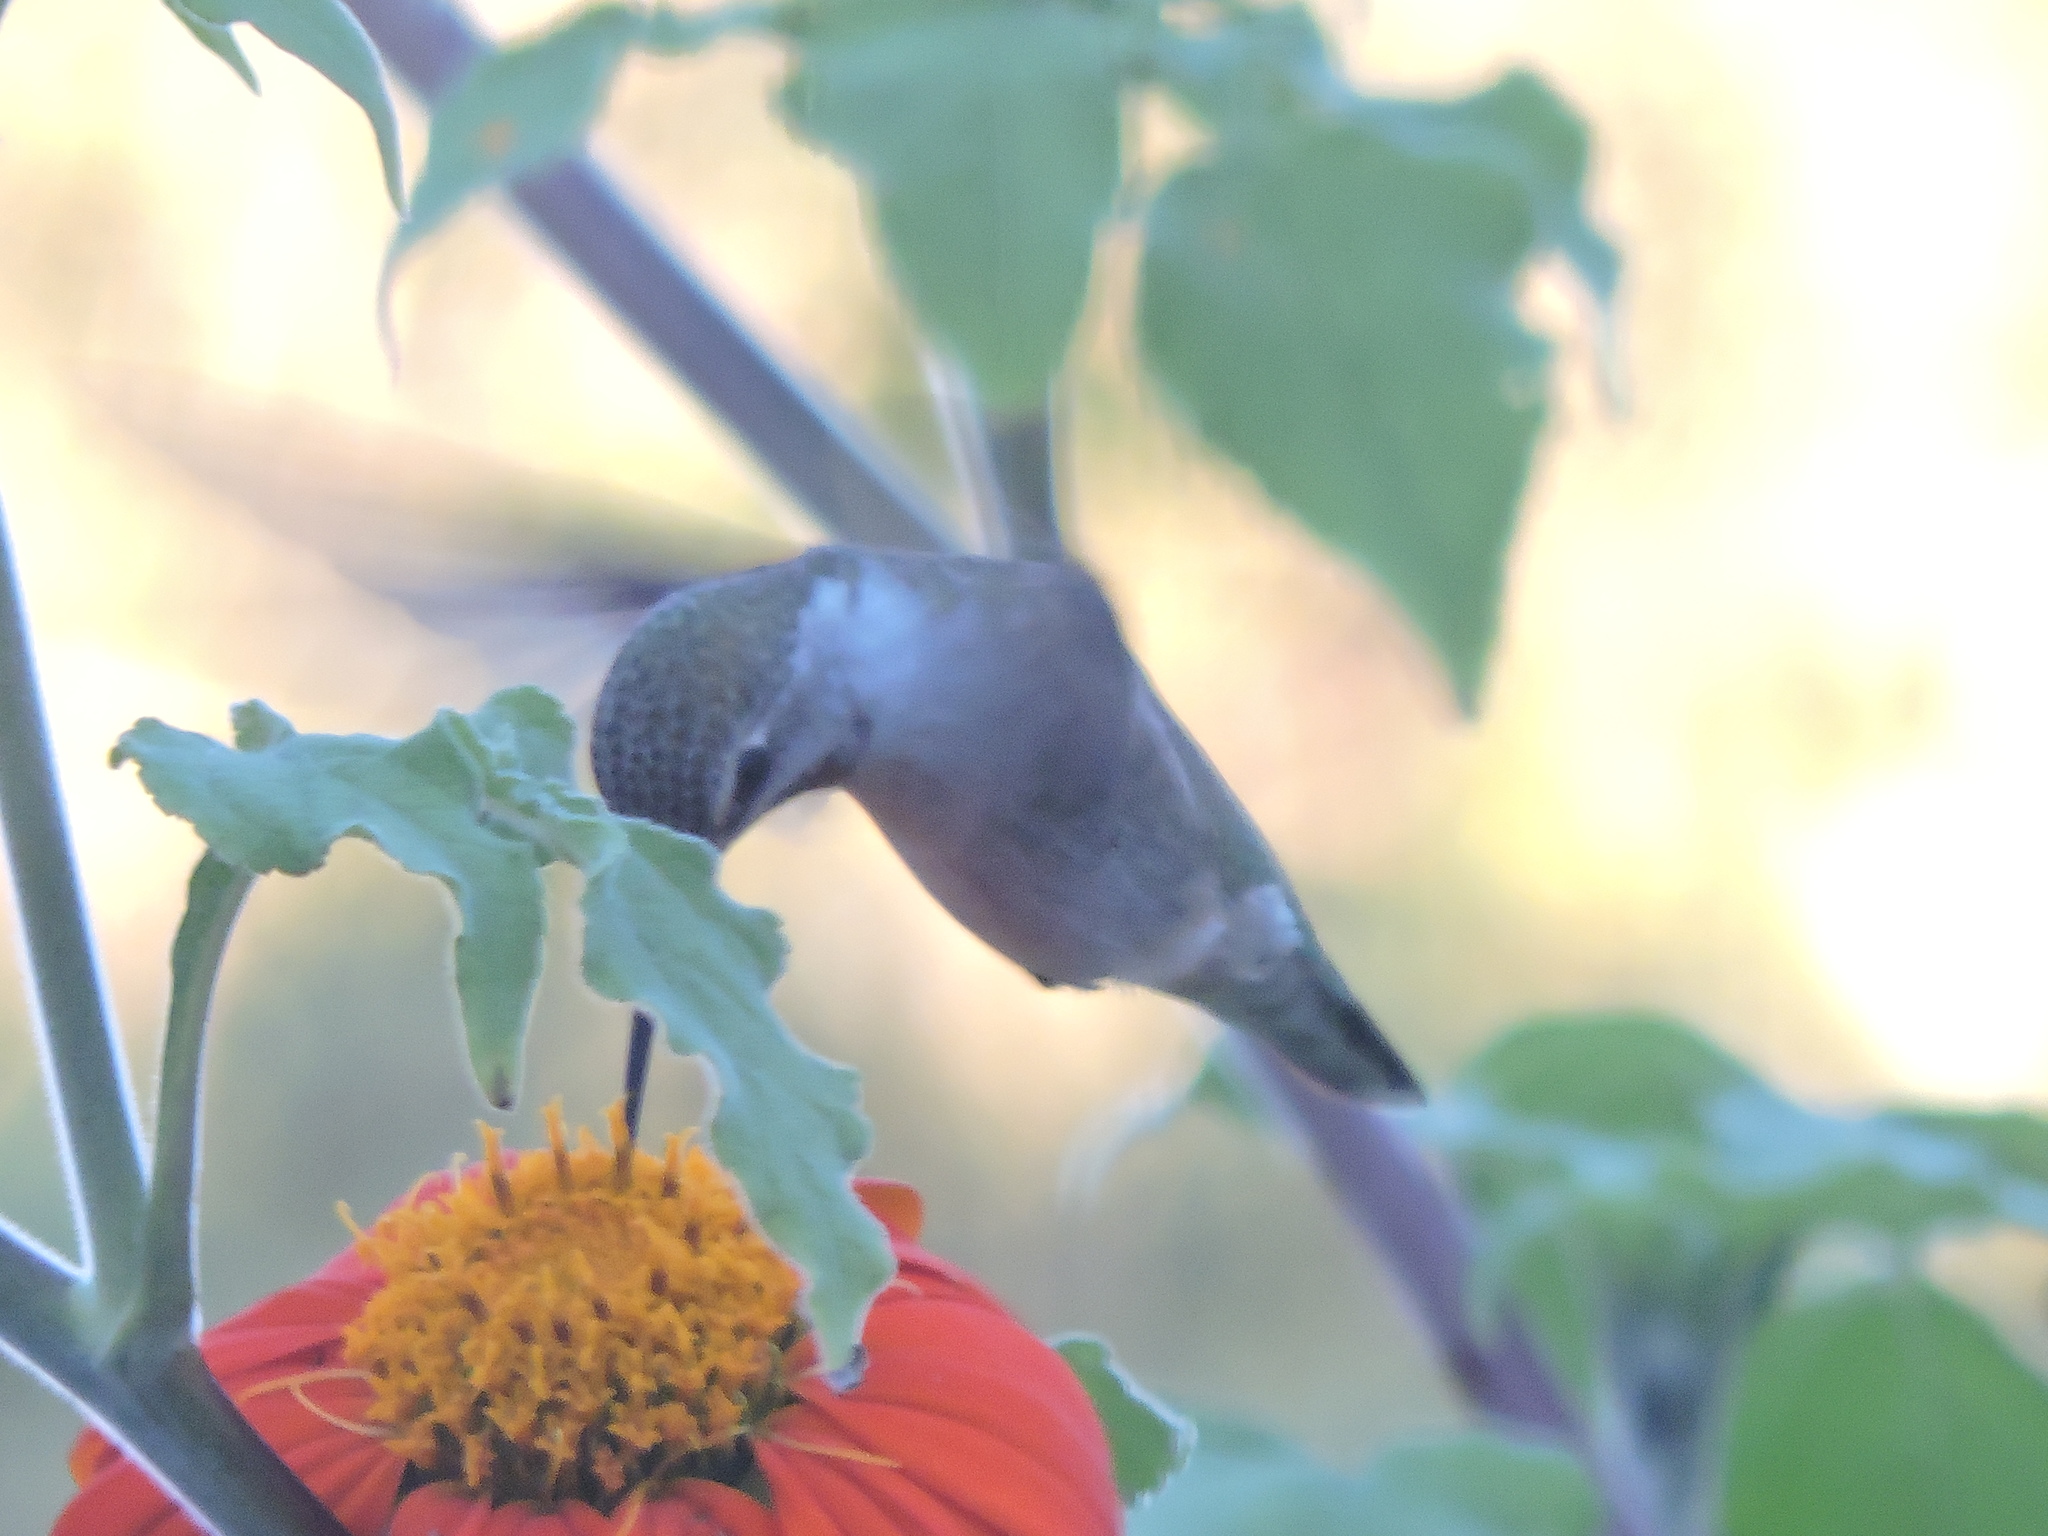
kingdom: Animalia
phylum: Chordata
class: Aves
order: Apodiformes
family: Trochilidae
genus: Calypte
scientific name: Calypte anna
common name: Anna's hummingbird
